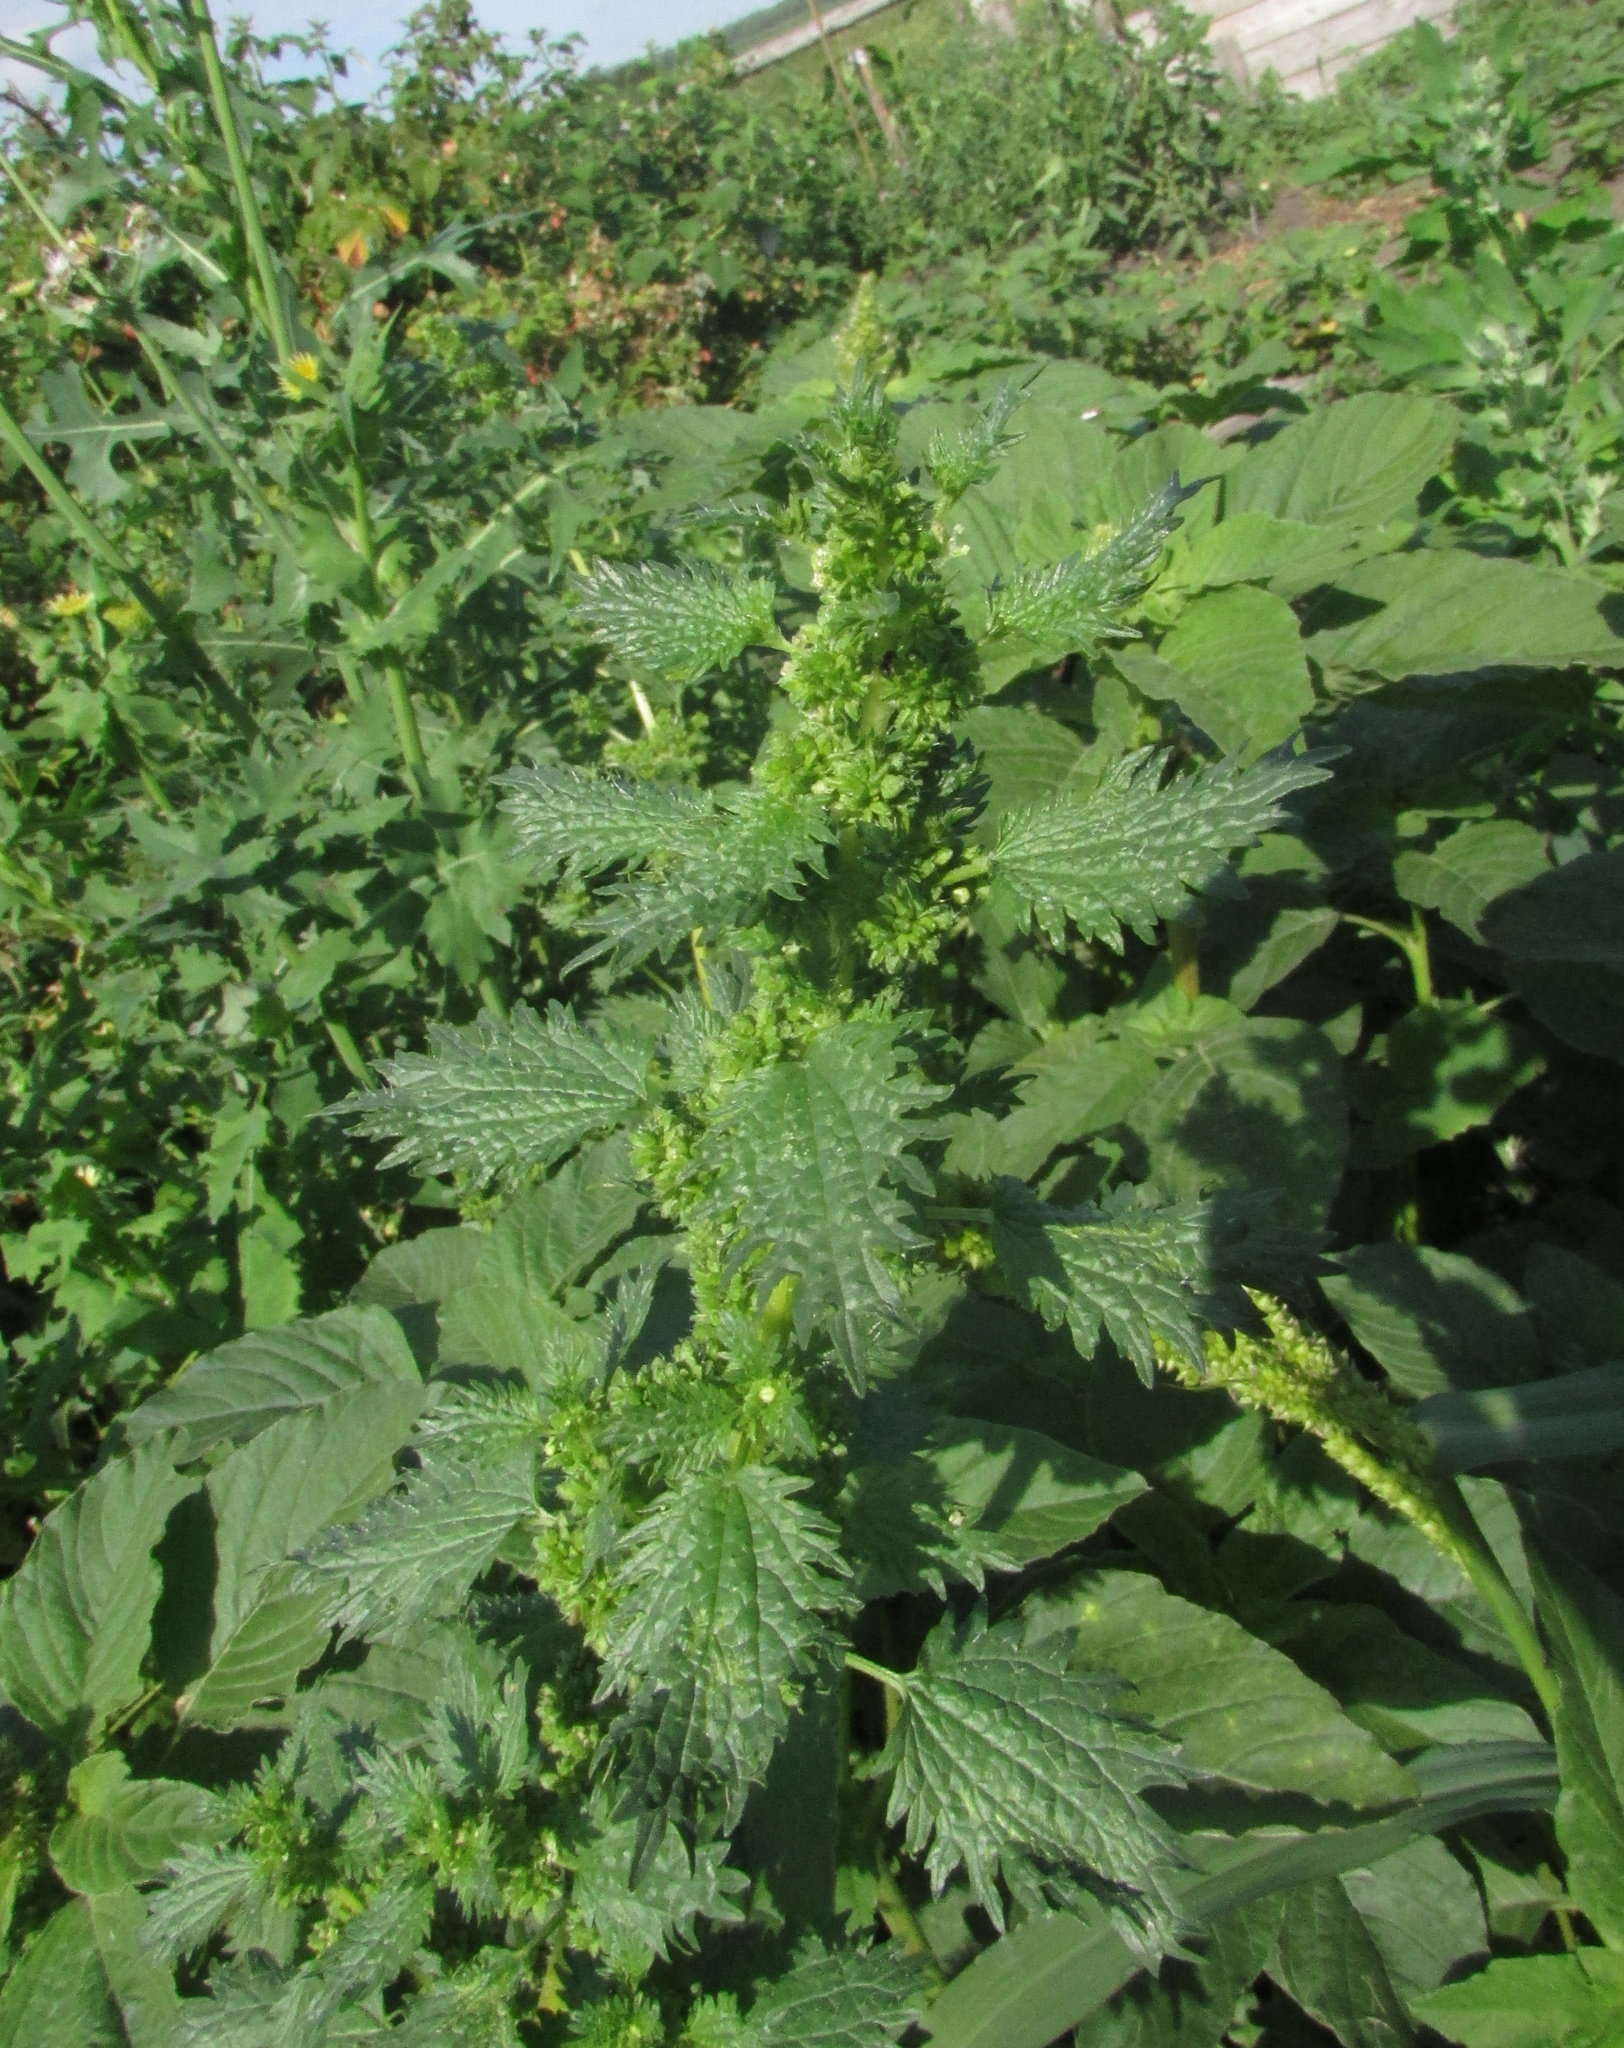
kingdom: Plantae
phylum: Tracheophyta
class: Magnoliopsida
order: Rosales
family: Urticaceae
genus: Urtica
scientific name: Urtica urens
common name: Dwarf nettle
